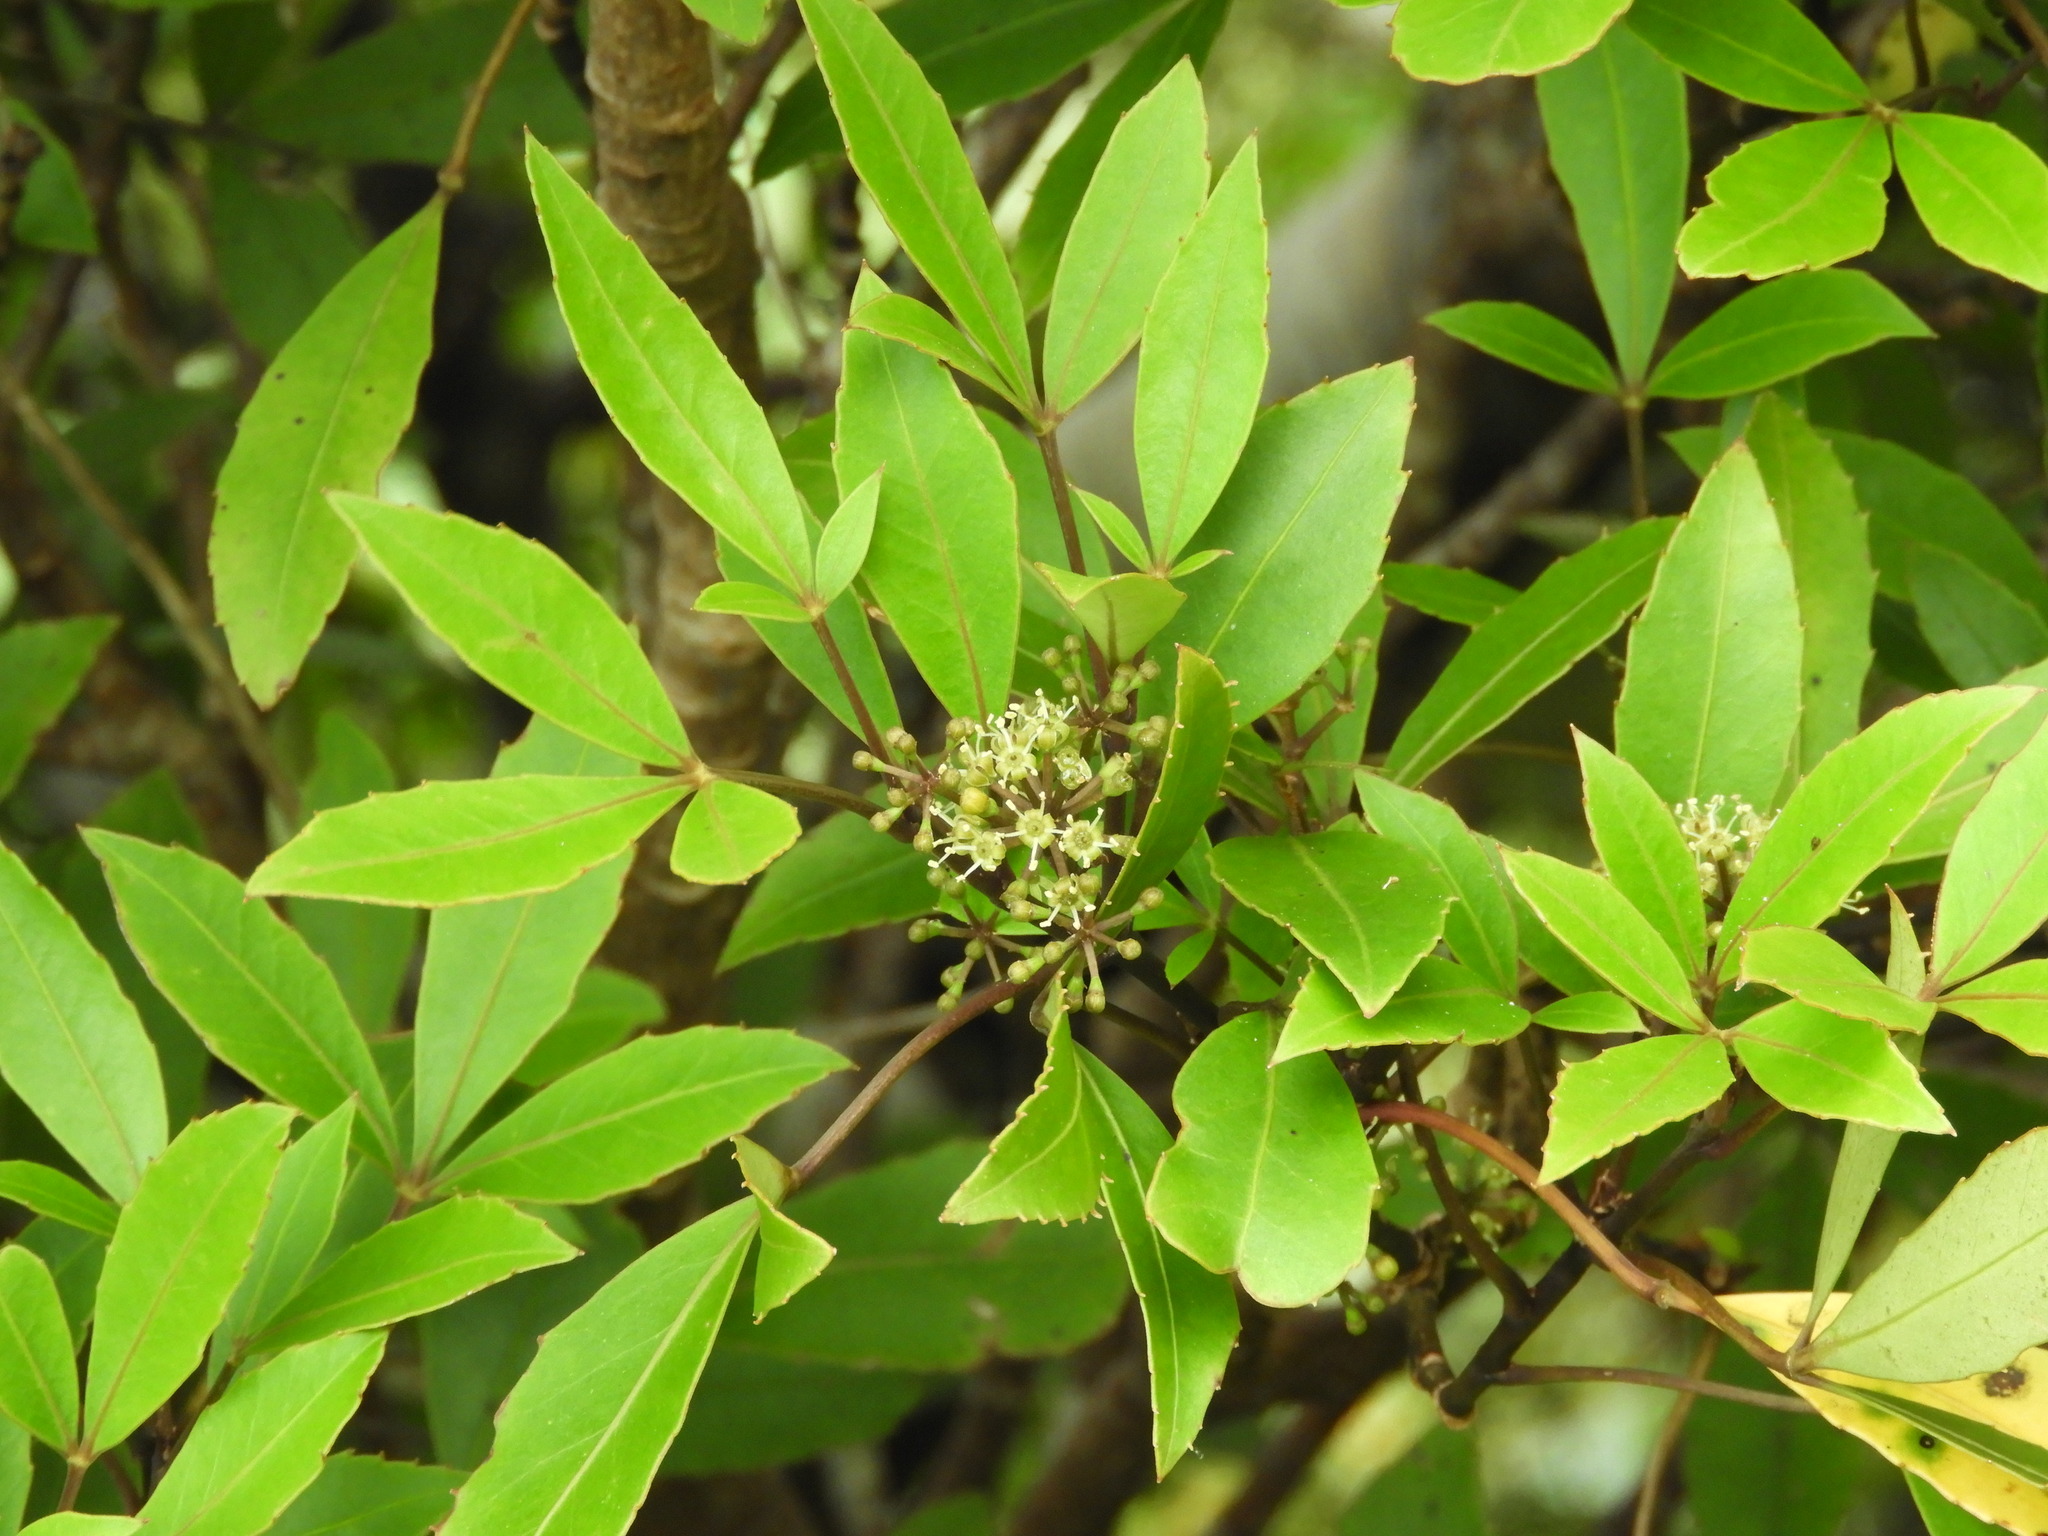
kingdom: Plantae
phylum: Tracheophyta
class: Magnoliopsida
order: Apiales
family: Araliaceae
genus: Neopanax
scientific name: Neopanax colensoi
